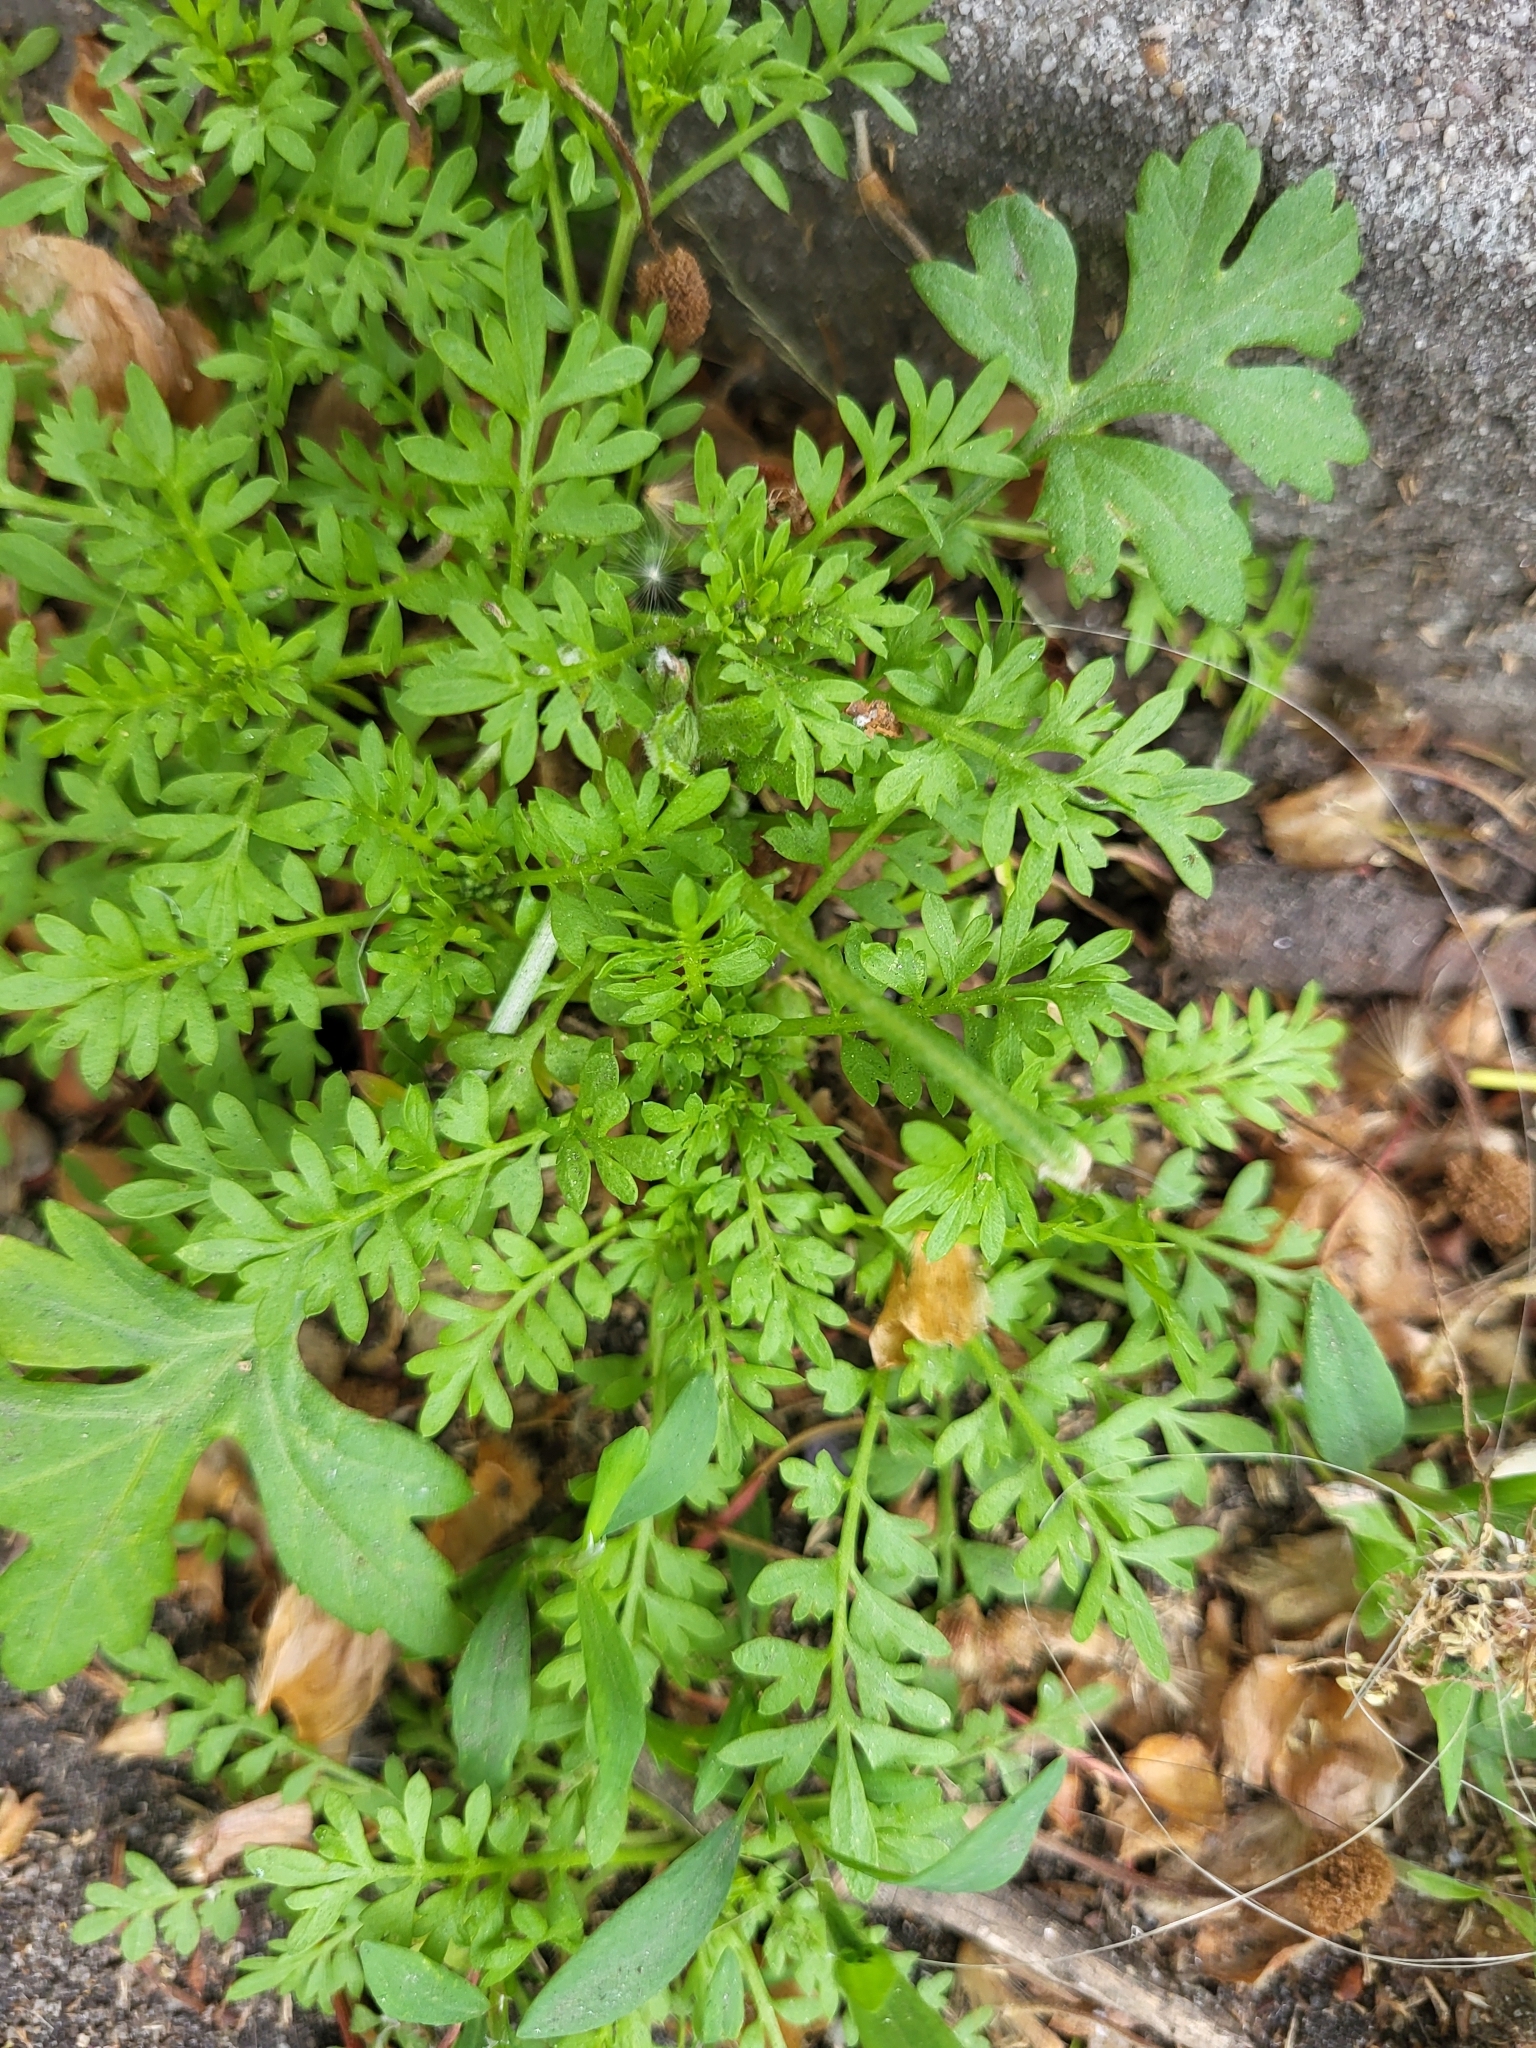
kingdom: Plantae
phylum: Tracheophyta
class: Magnoliopsida
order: Brassicales
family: Brassicaceae
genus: Lepidium
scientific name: Lepidium didymum
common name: Lesser swinecress
